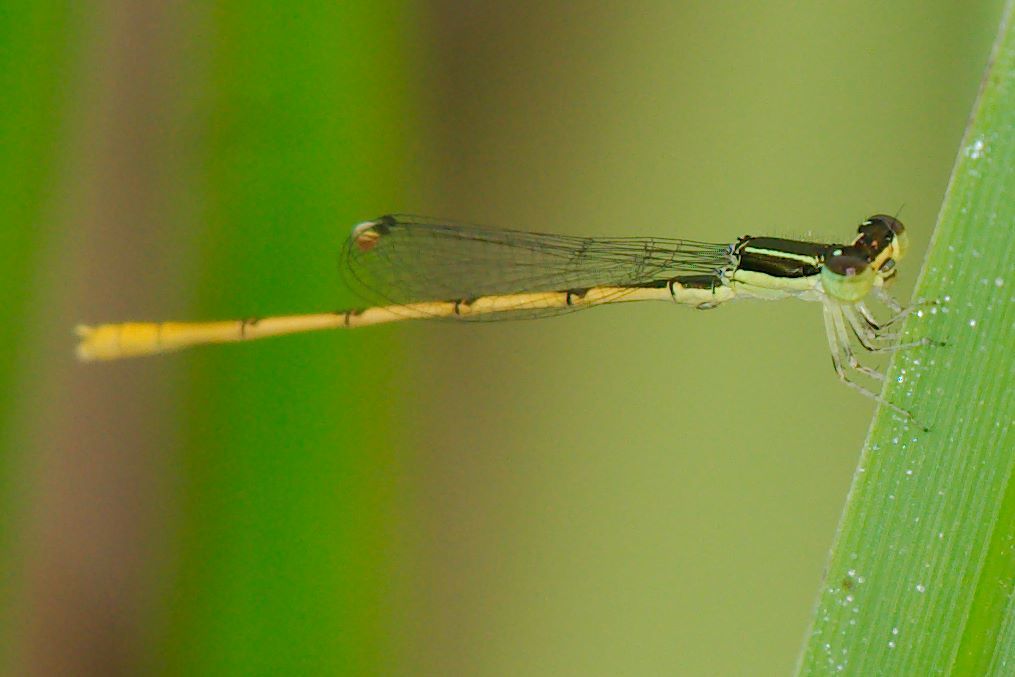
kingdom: Animalia
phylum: Arthropoda
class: Insecta
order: Odonata
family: Coenagrionidae
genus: Ischnura
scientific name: Ischnura hastata
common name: Citrine forktail
